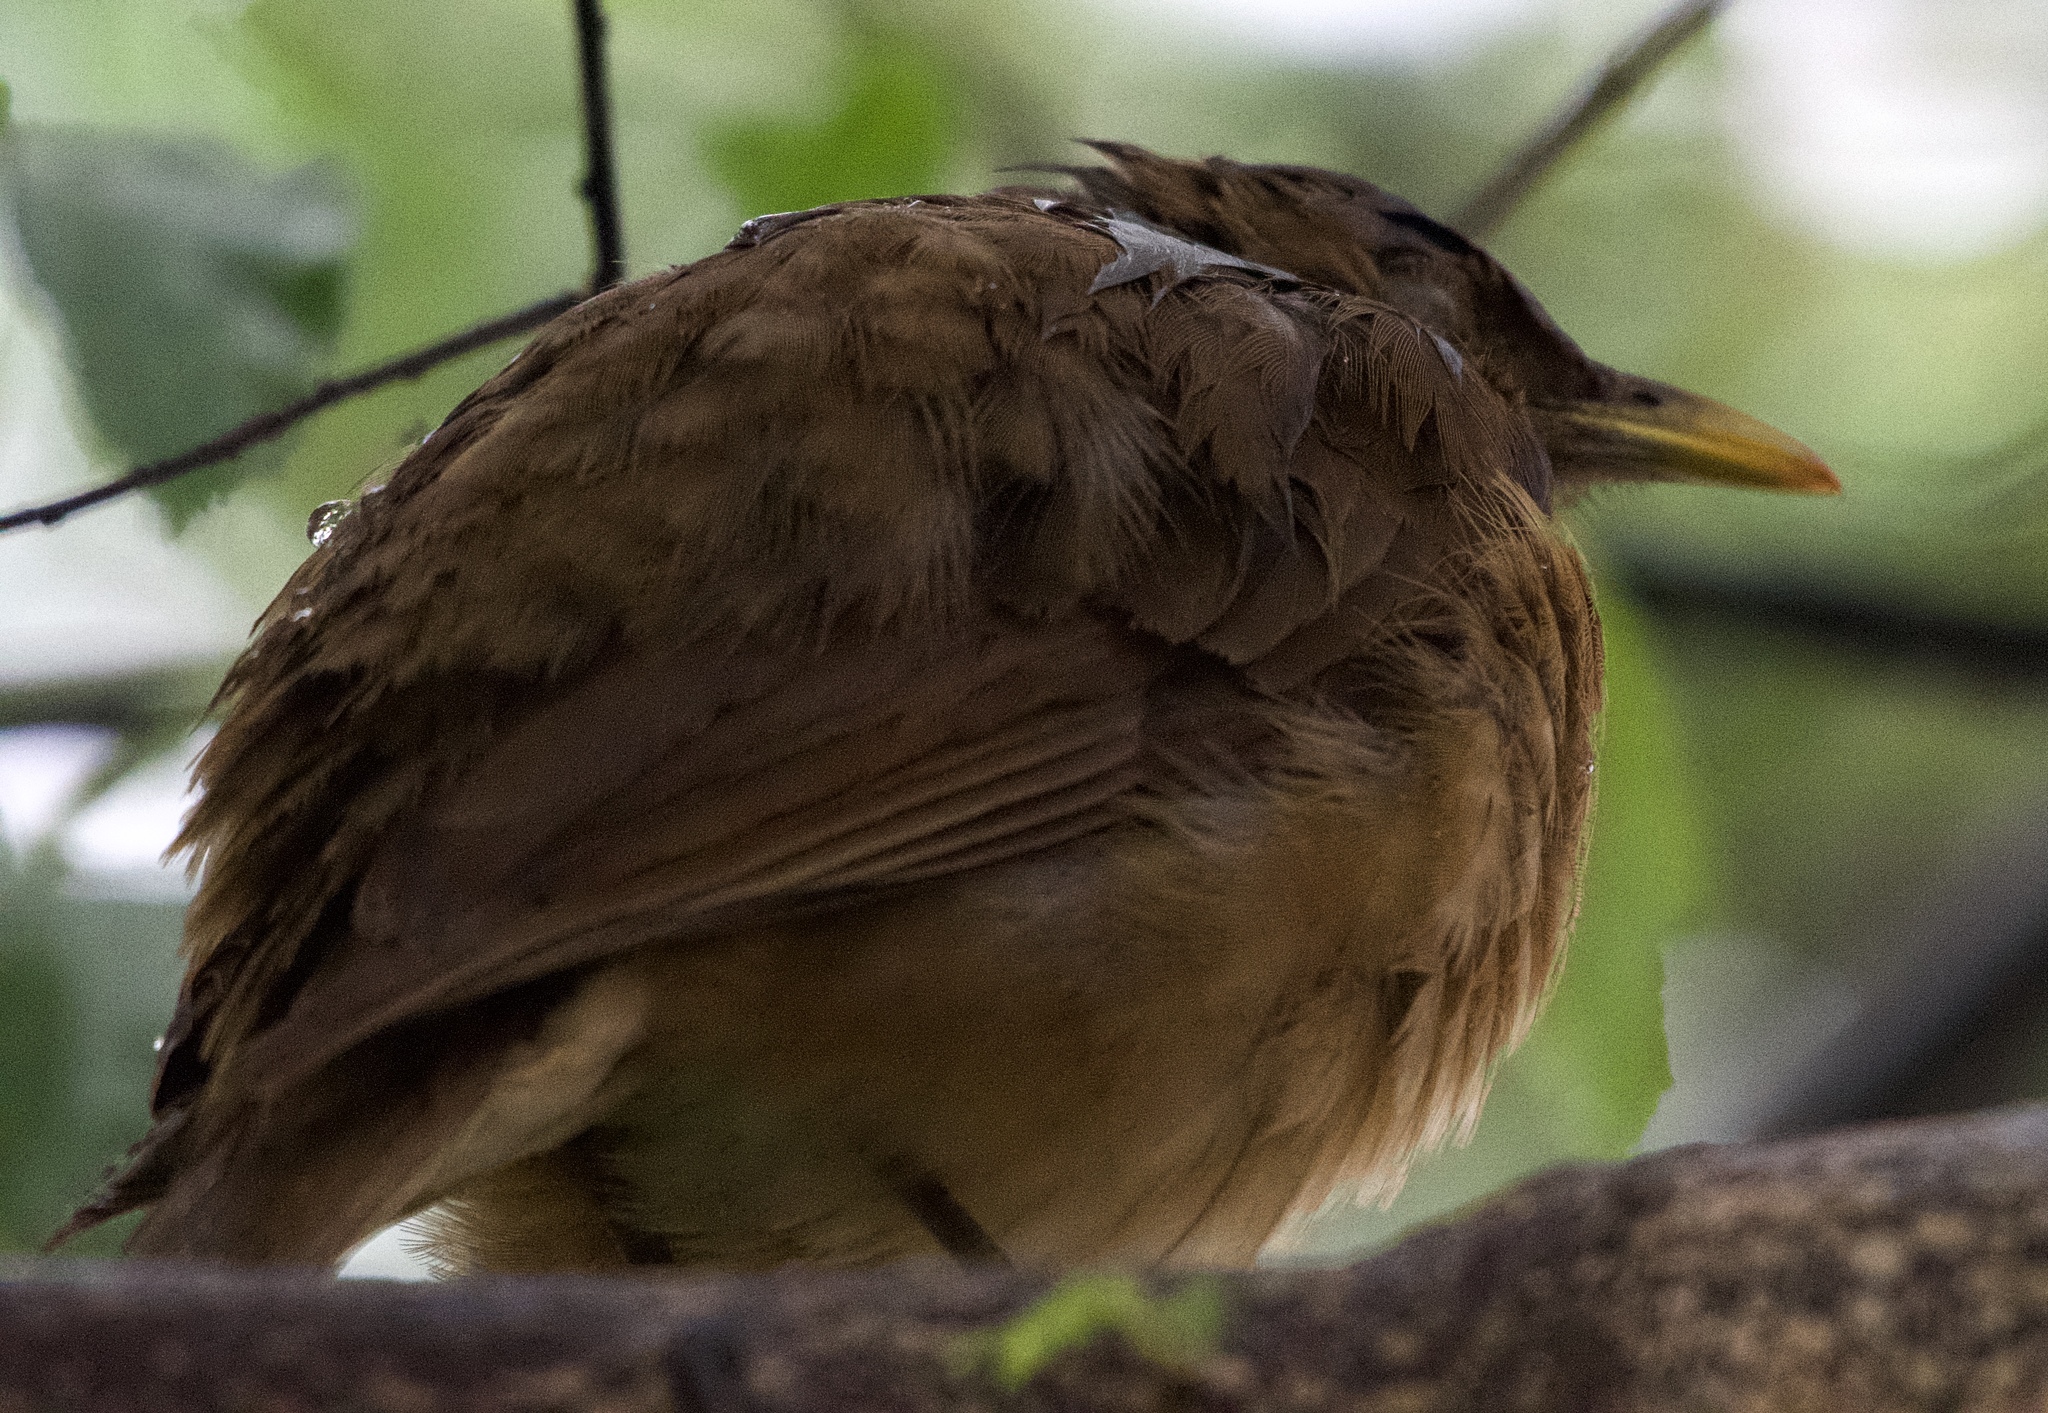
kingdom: Animalia
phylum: Chordata
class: Aves
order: Passeriformes
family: Turdidae
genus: Turdus
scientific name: Turdus grayi
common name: Clay-colored thrush
